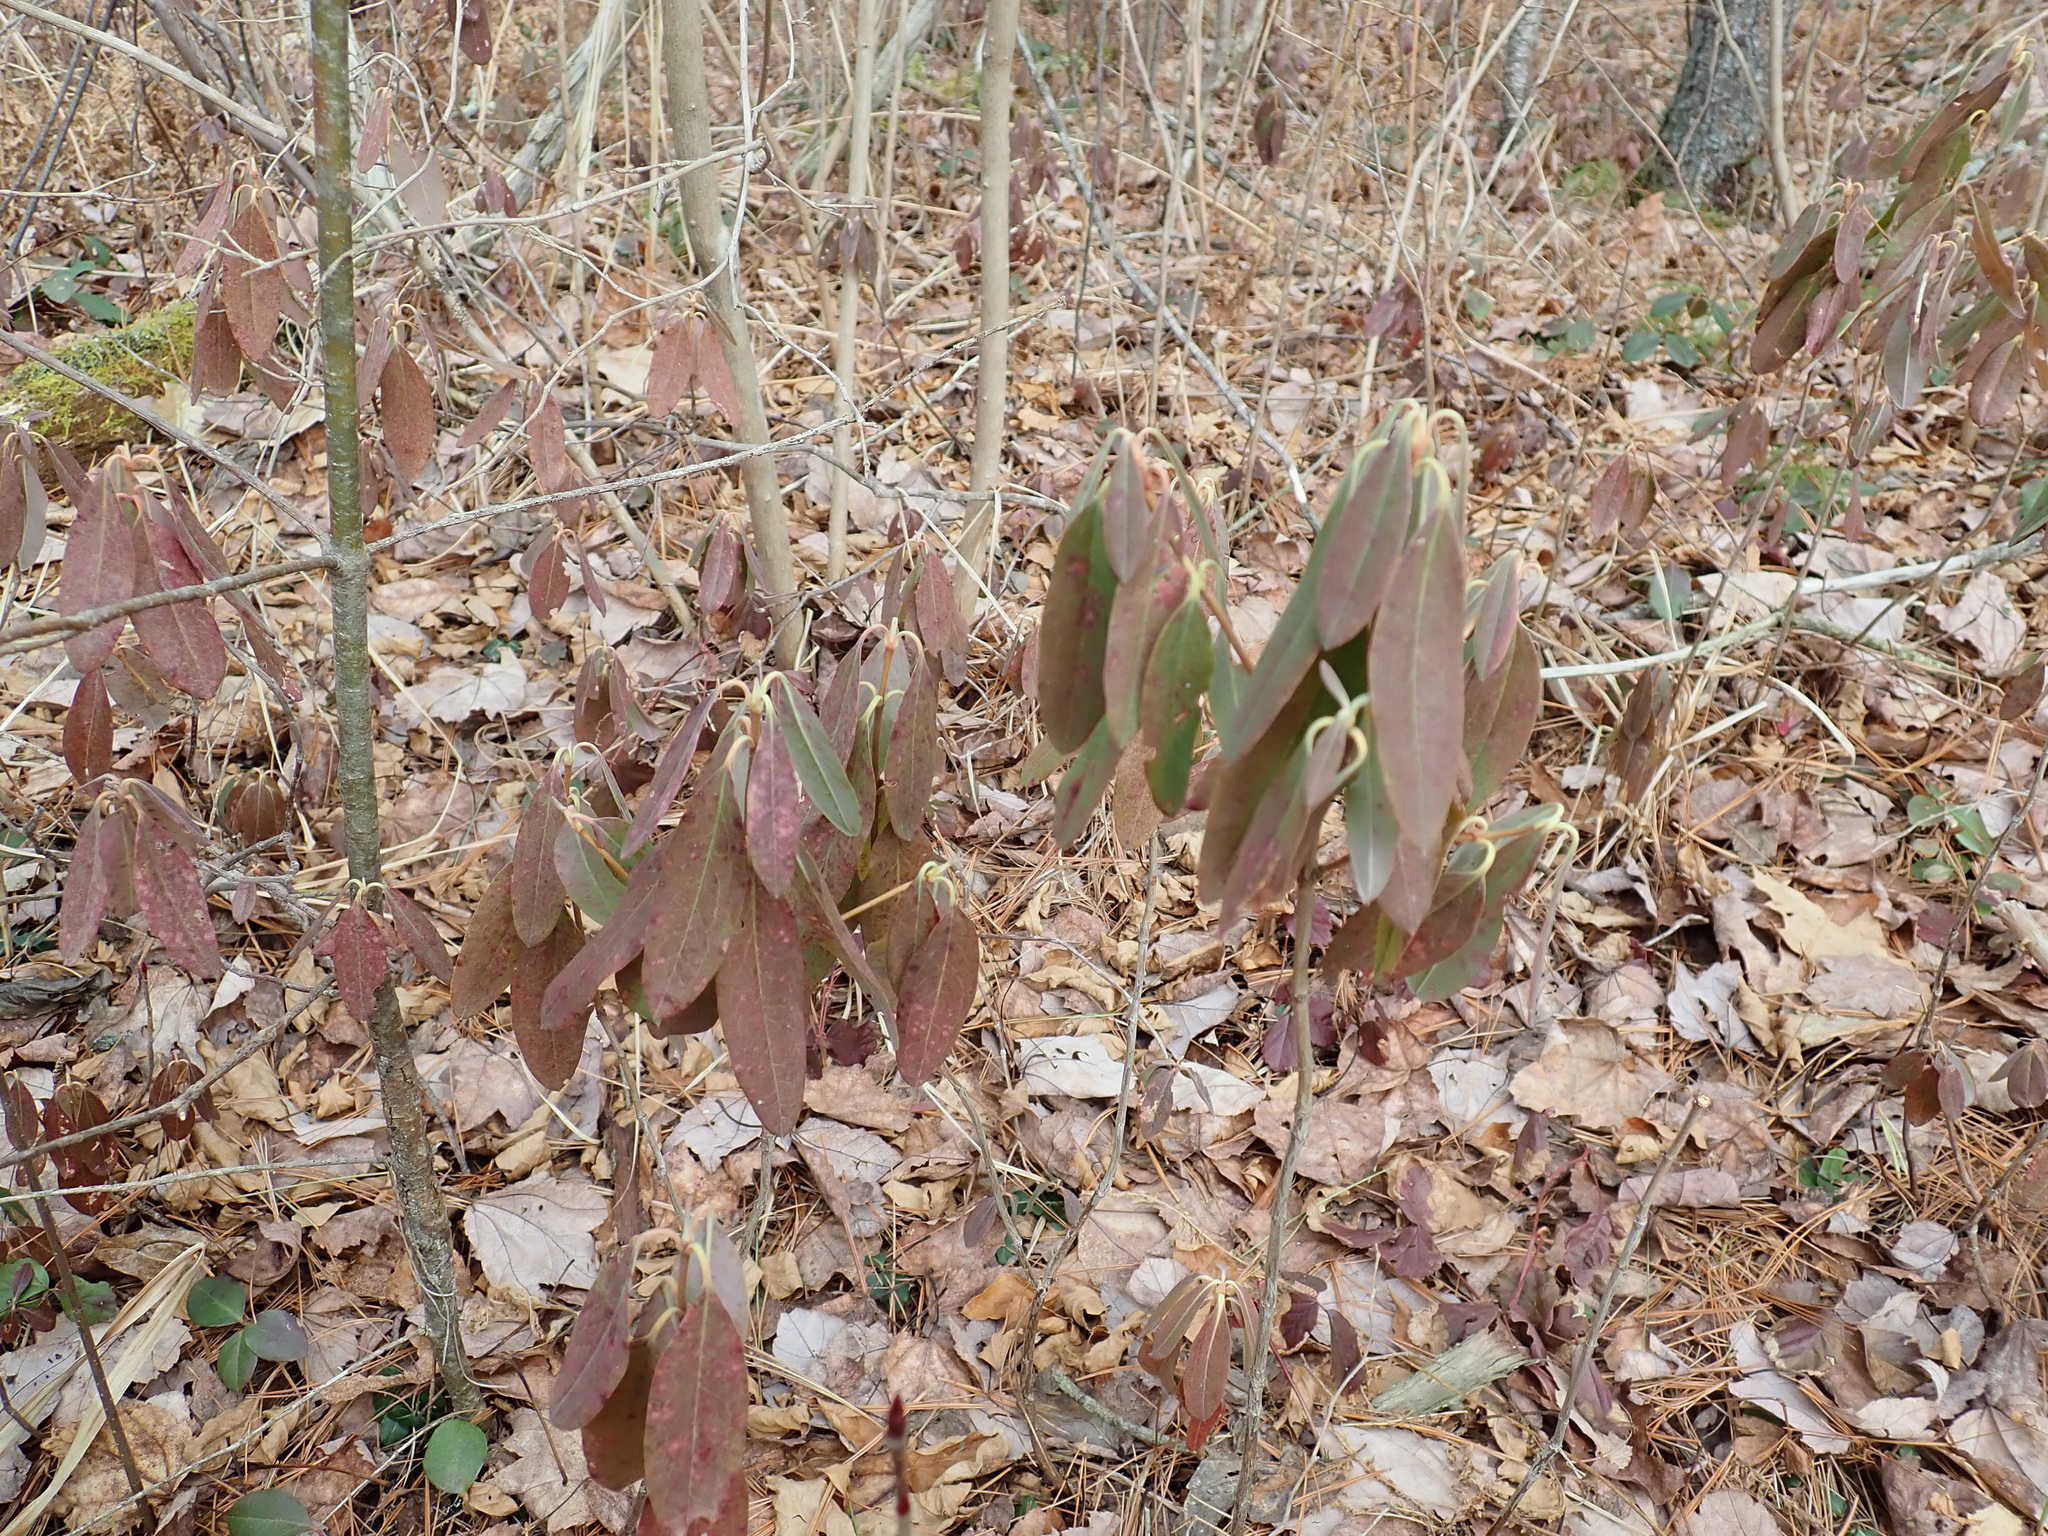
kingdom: Plantae
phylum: Tracheophyta
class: Magnoliopsida
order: Ericales
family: Ericaceae
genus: Kalmia
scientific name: Kalmia angustifolia
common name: Sheep-laurel
